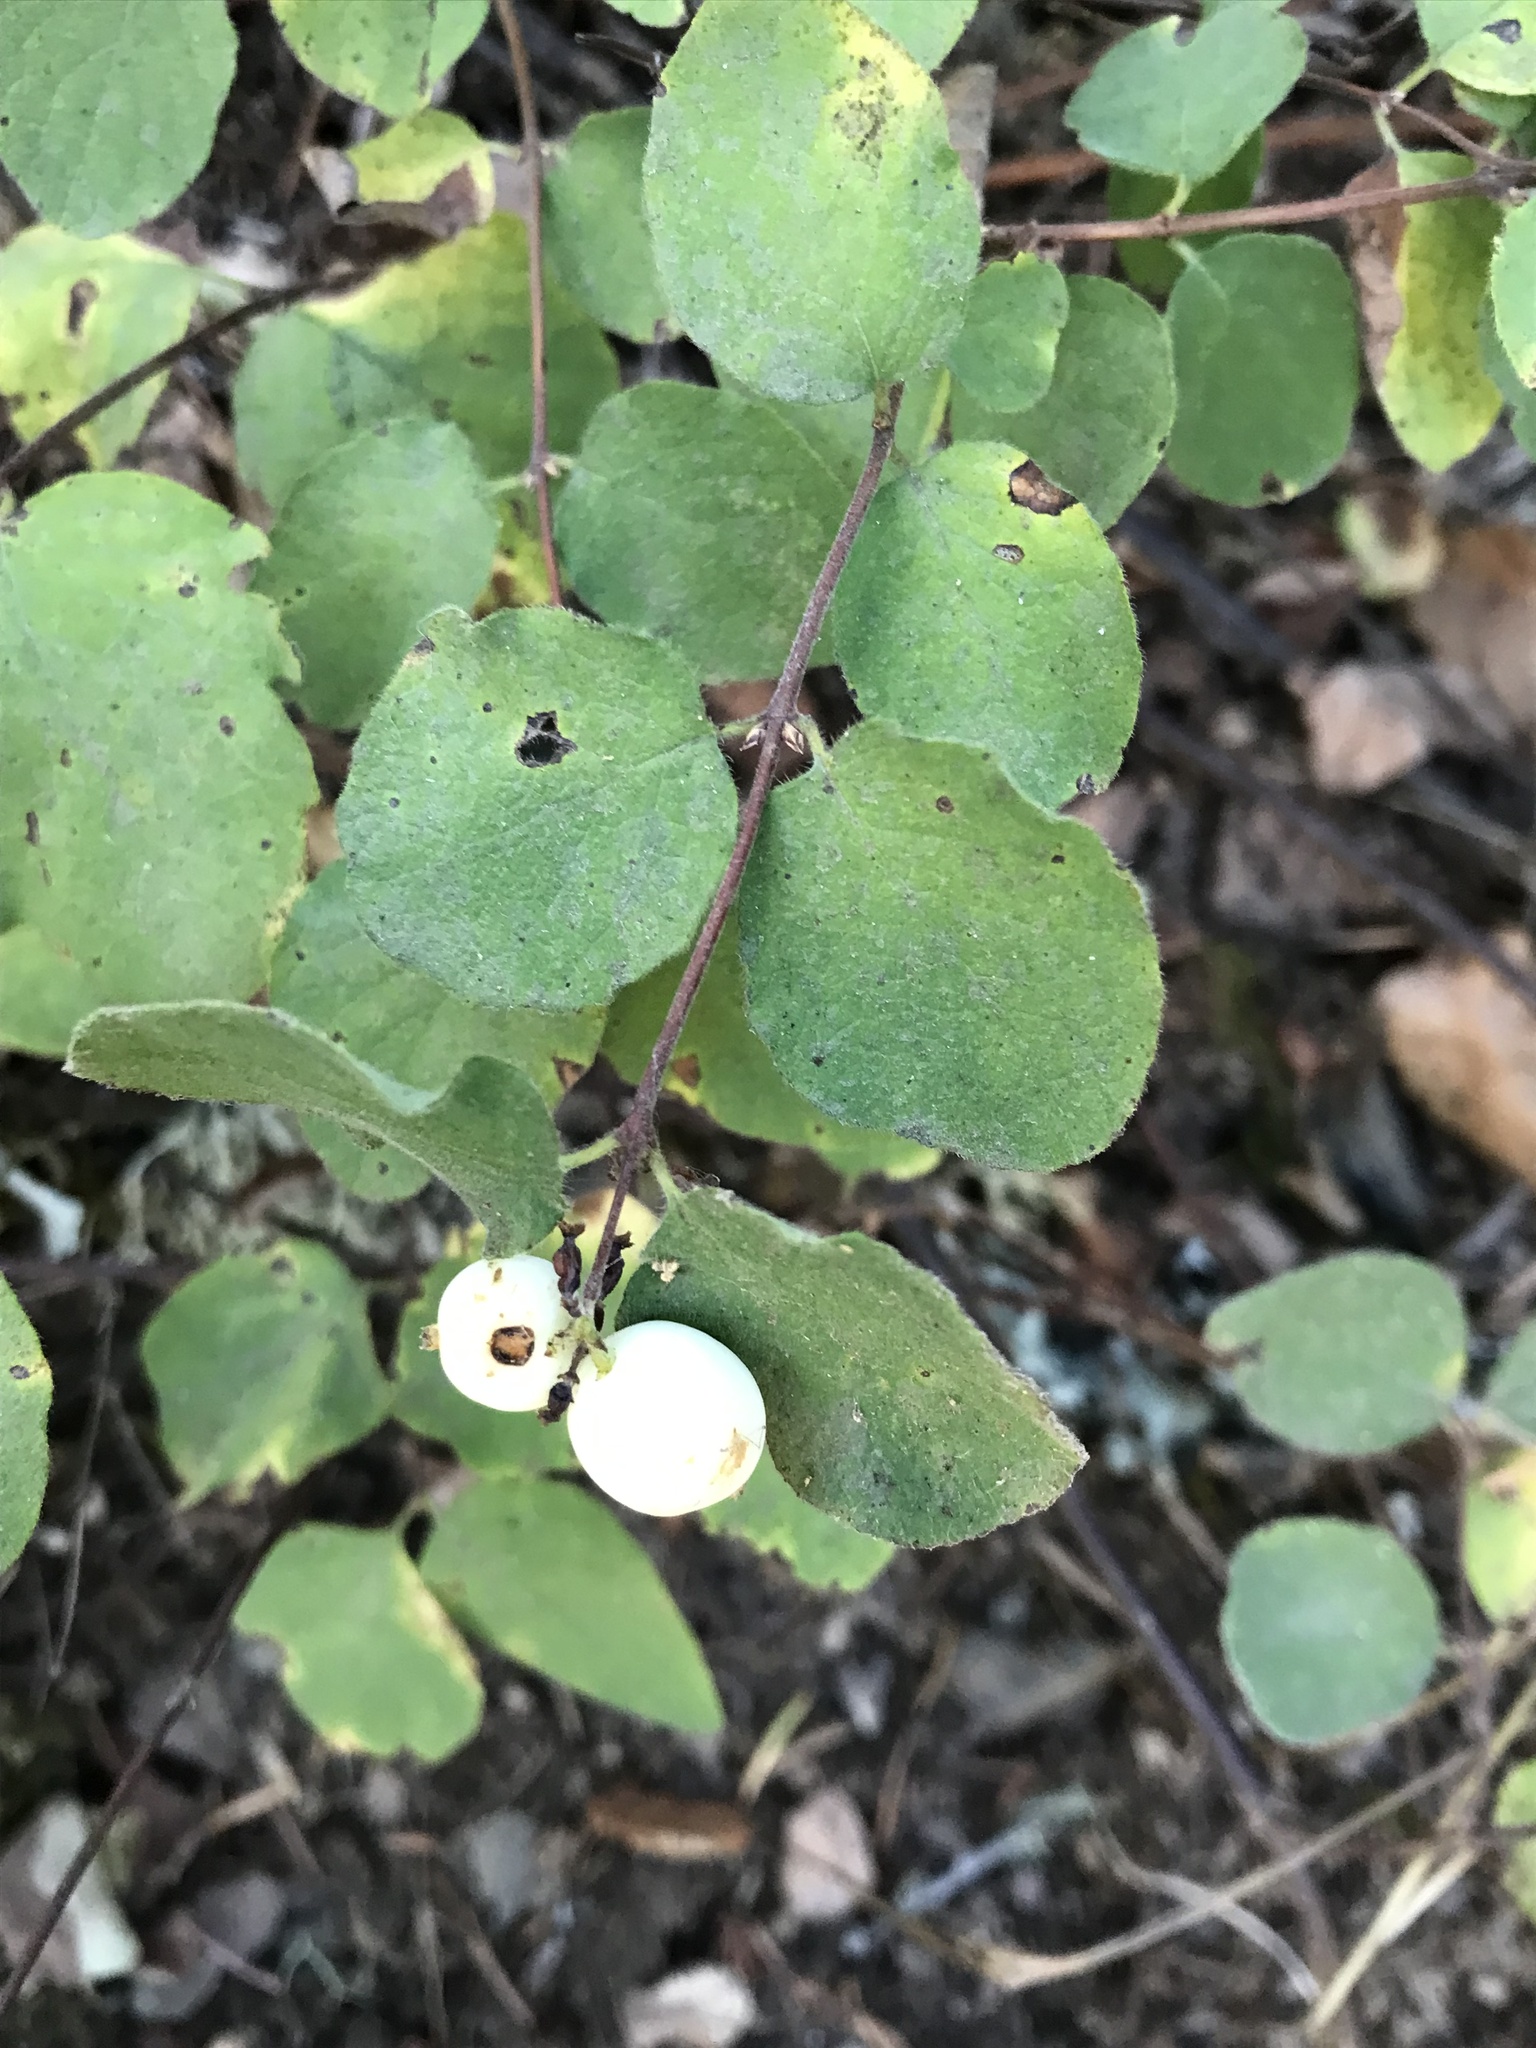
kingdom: Plantae
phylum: Tracheophyta
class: Magnoliopsida
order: Dipsacales
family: Caprifoliaceae
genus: Symphoricarpos
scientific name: Symphoricarpos mollis
